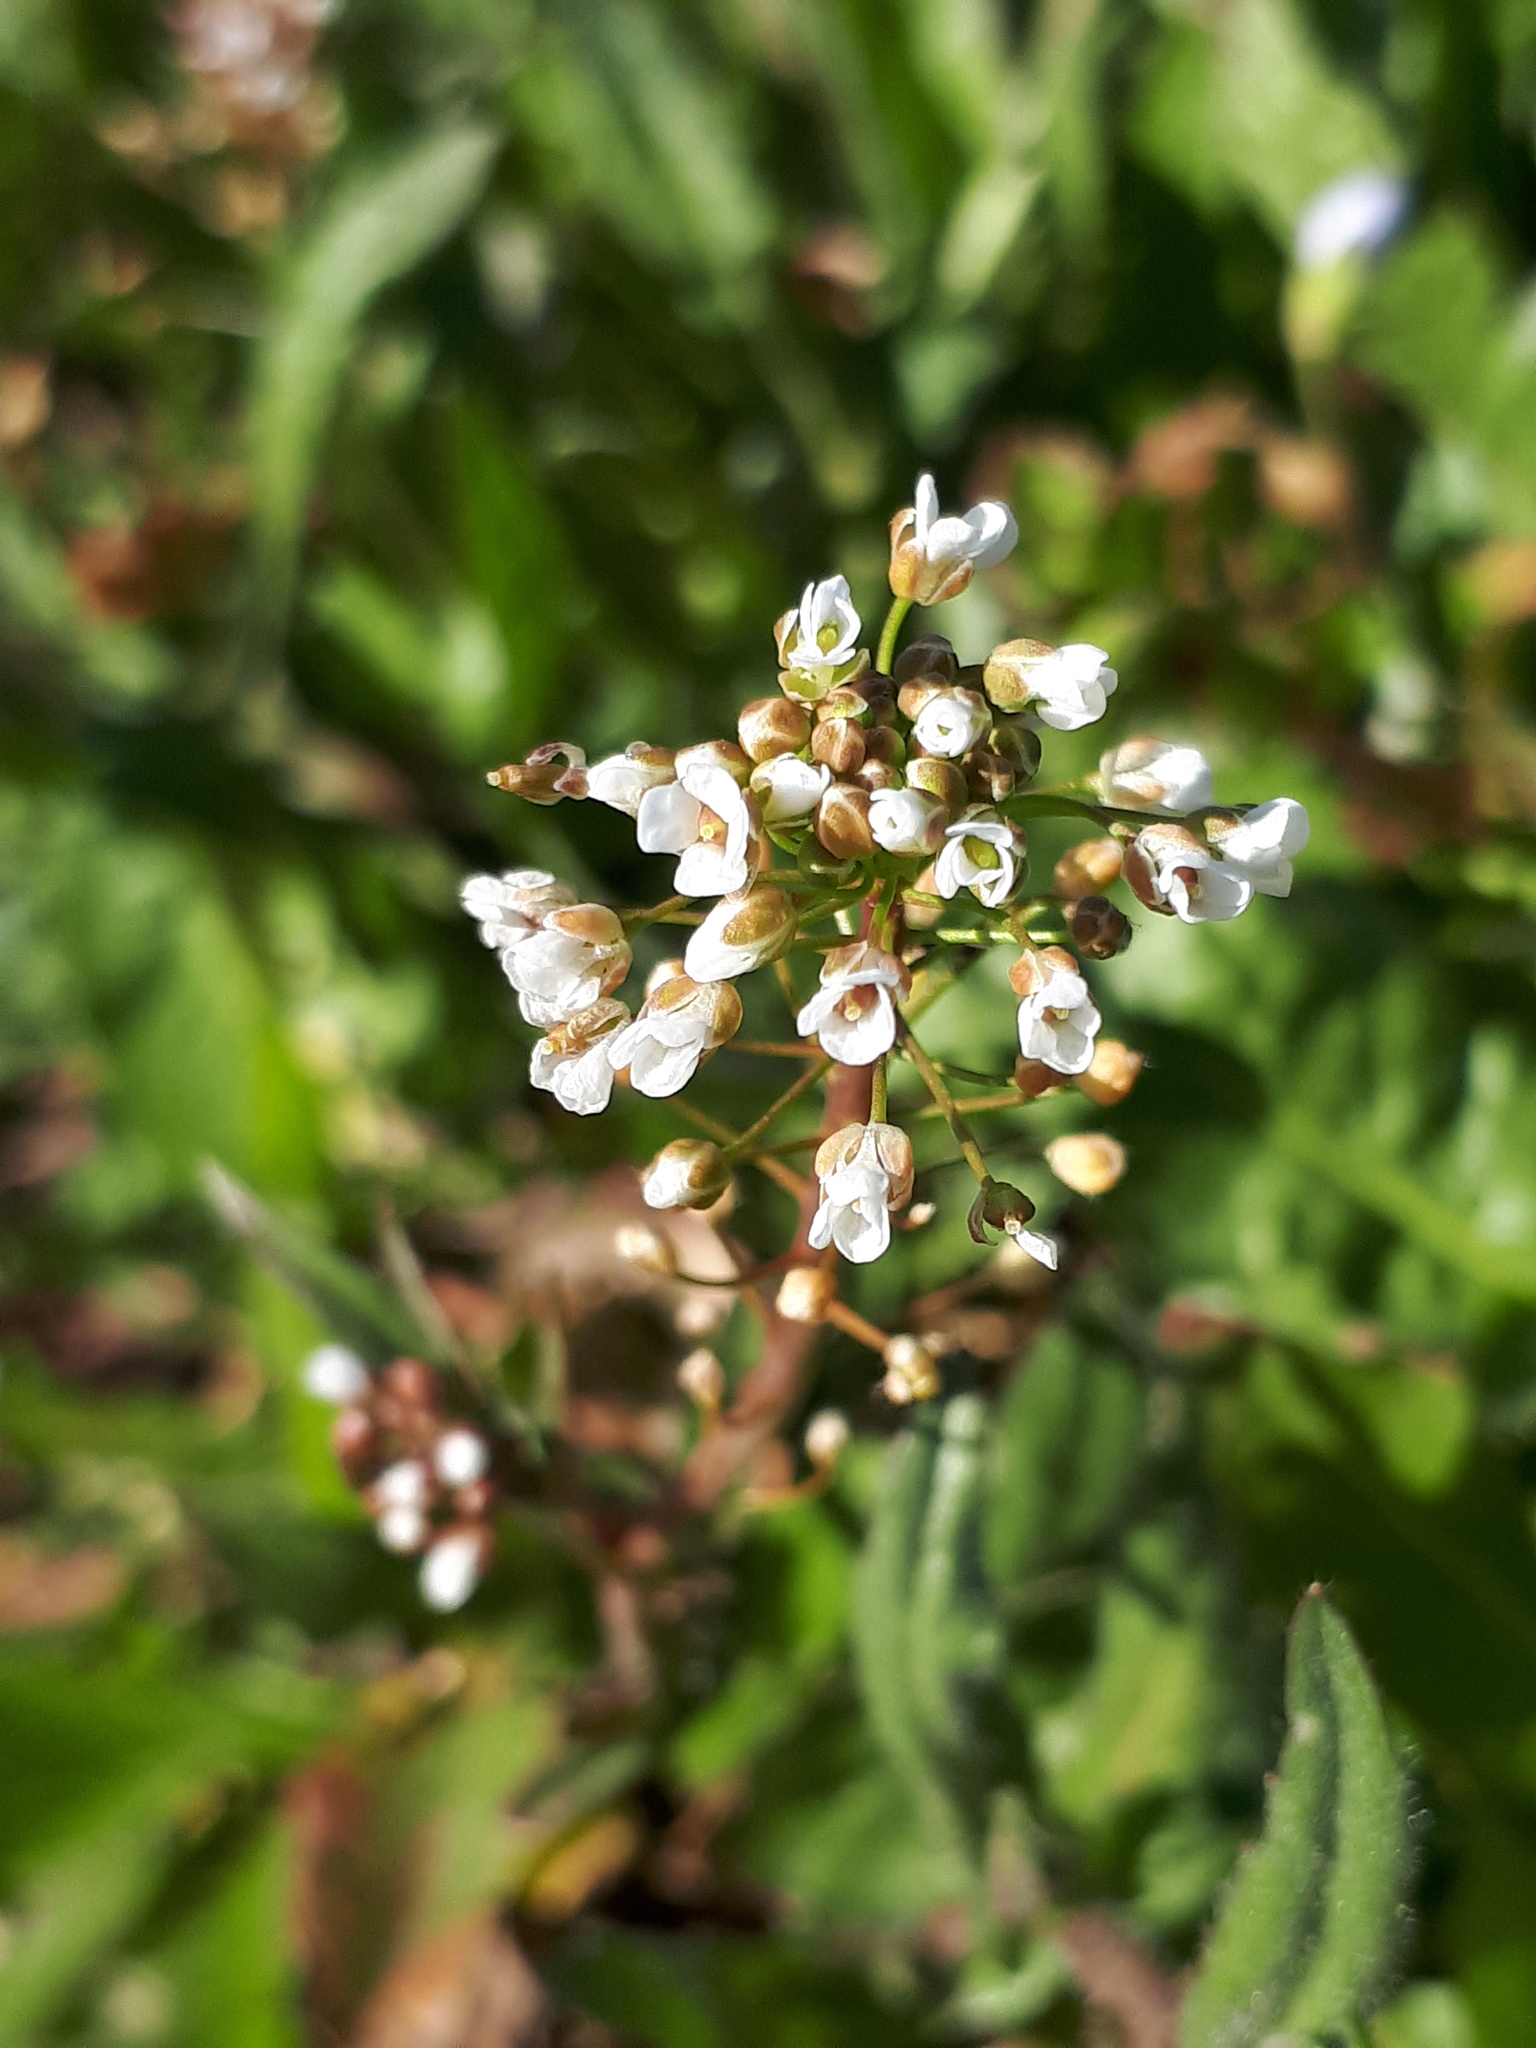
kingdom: Plantae
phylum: Tracheophyta
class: Magnoliopsida
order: Brassicales
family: Brassicaceae
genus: Capsella
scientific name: Capsella bursa-pastoris
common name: Shepherd's purse
